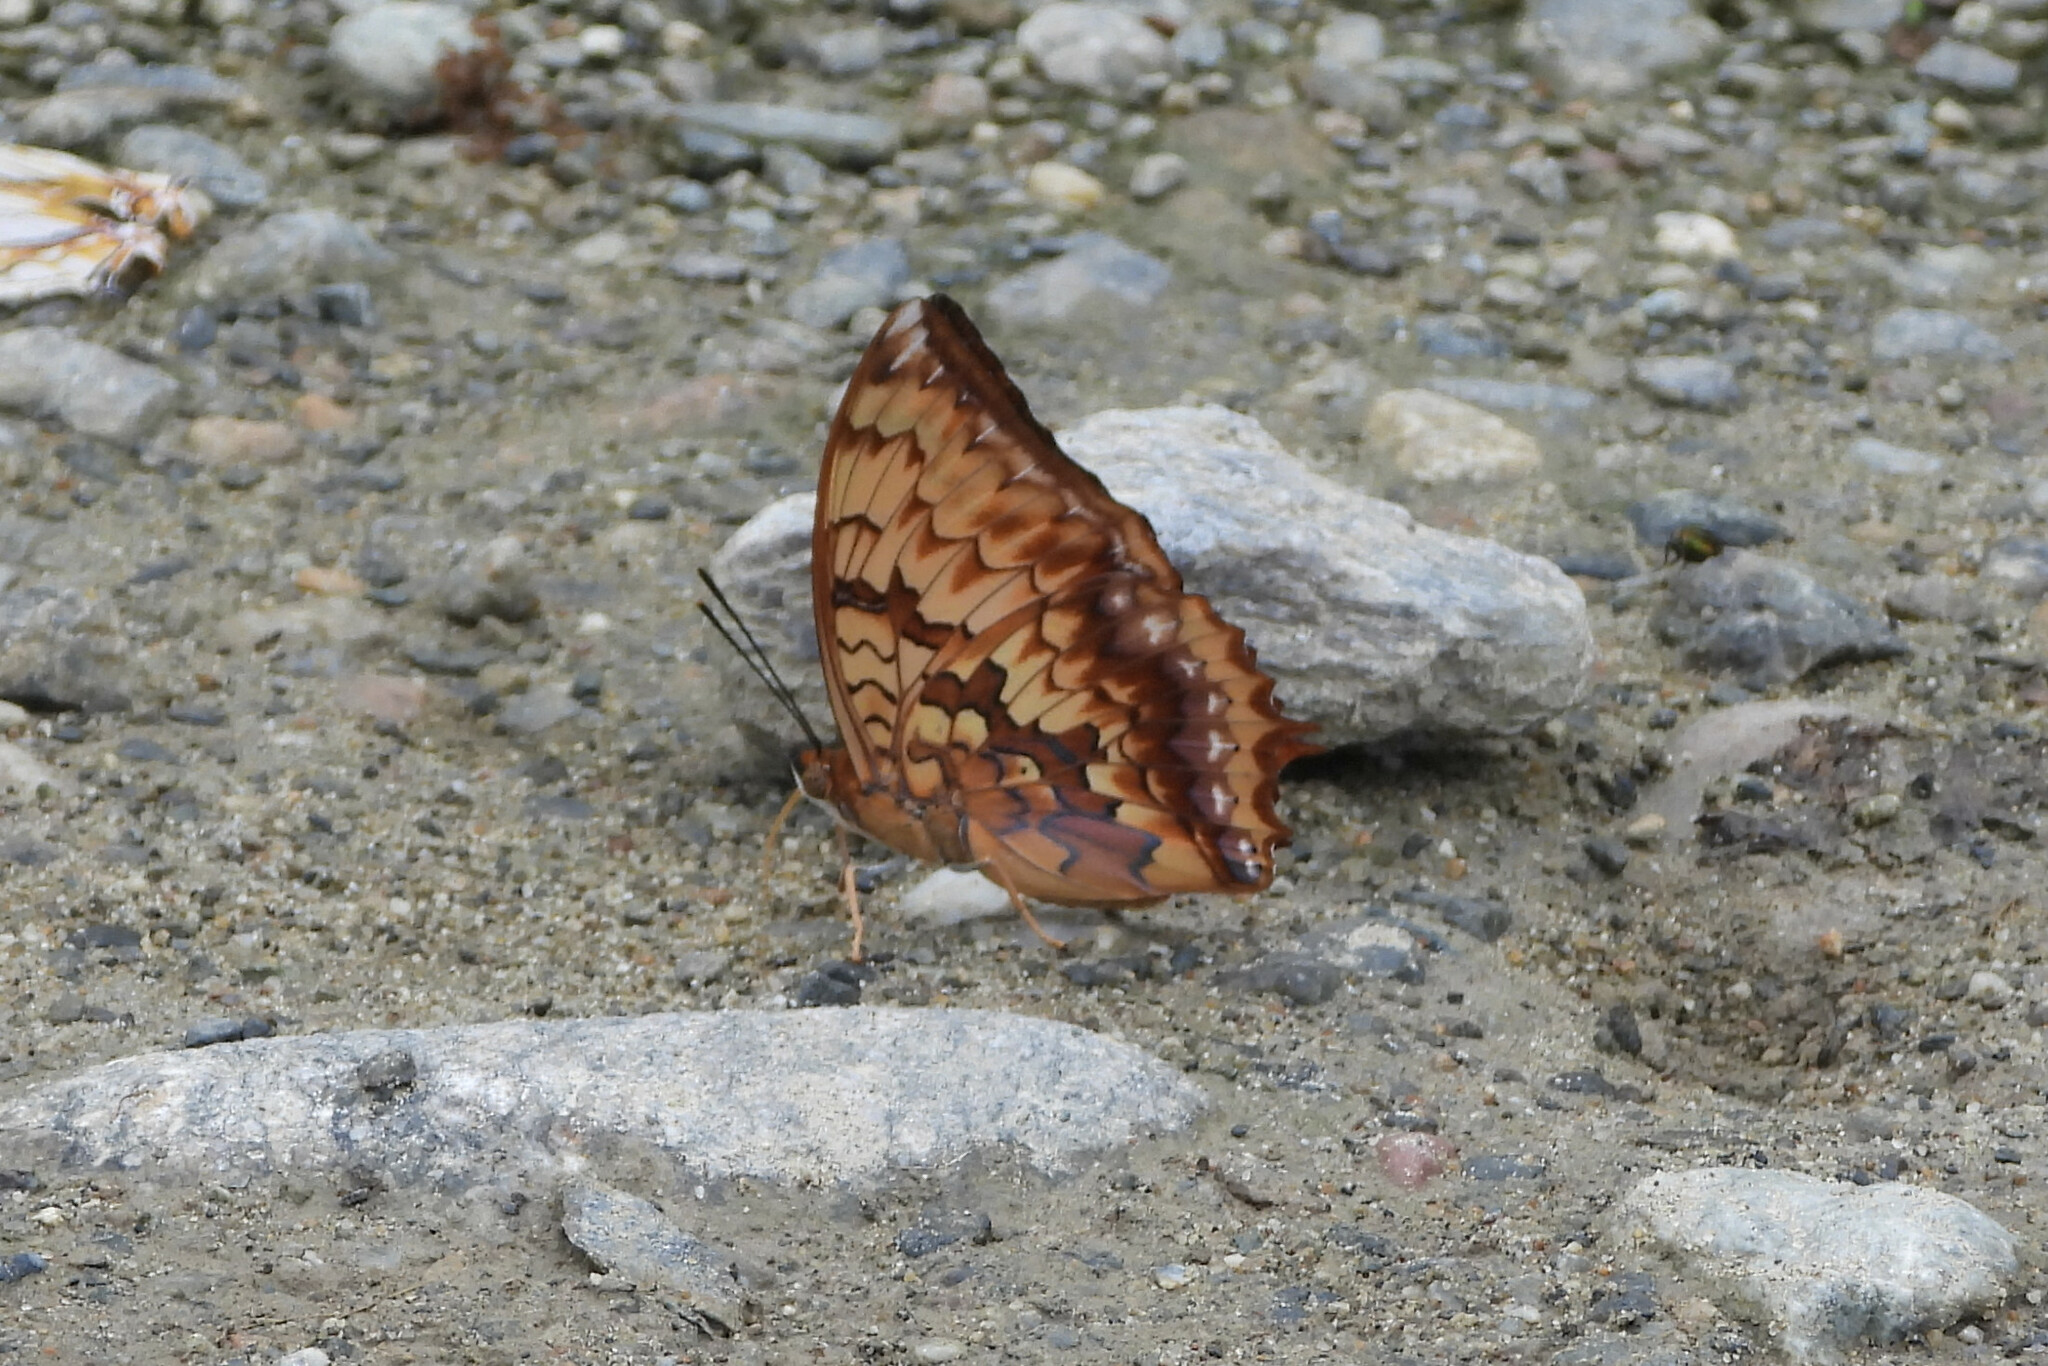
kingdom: Animalia
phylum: Arthropoda
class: Insecta
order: Lepidoptera
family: Nymphalidae
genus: Charaxes
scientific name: Charaxes kahruba
